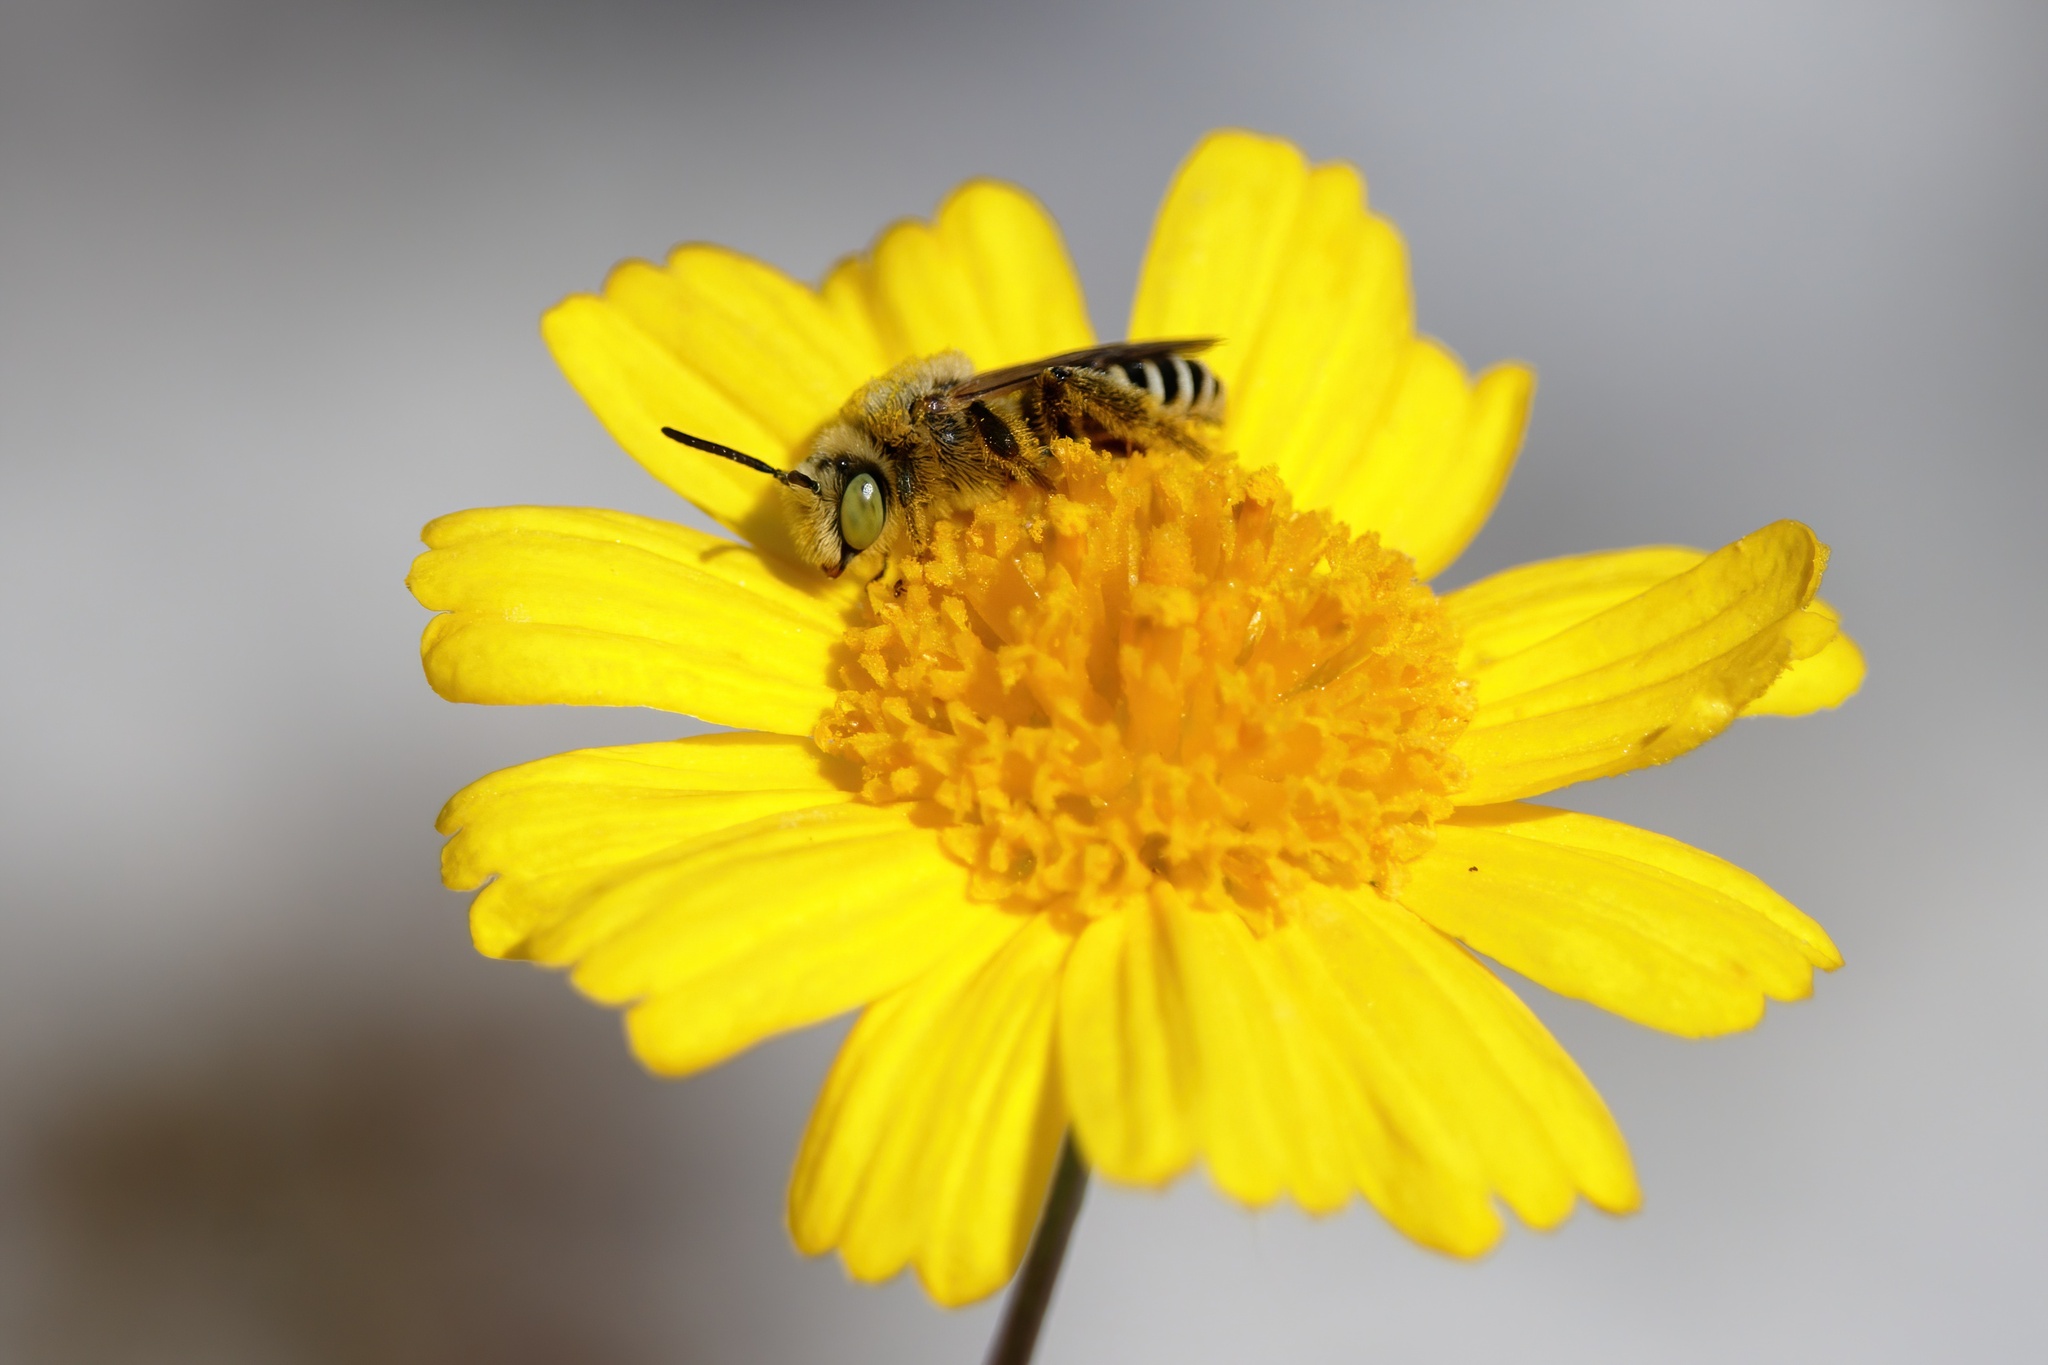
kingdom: Animalia
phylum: Arthropoda
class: Insecta
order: Hymenoptera
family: Melittidae
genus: Hesperapis
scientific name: Hesperapis oraria
